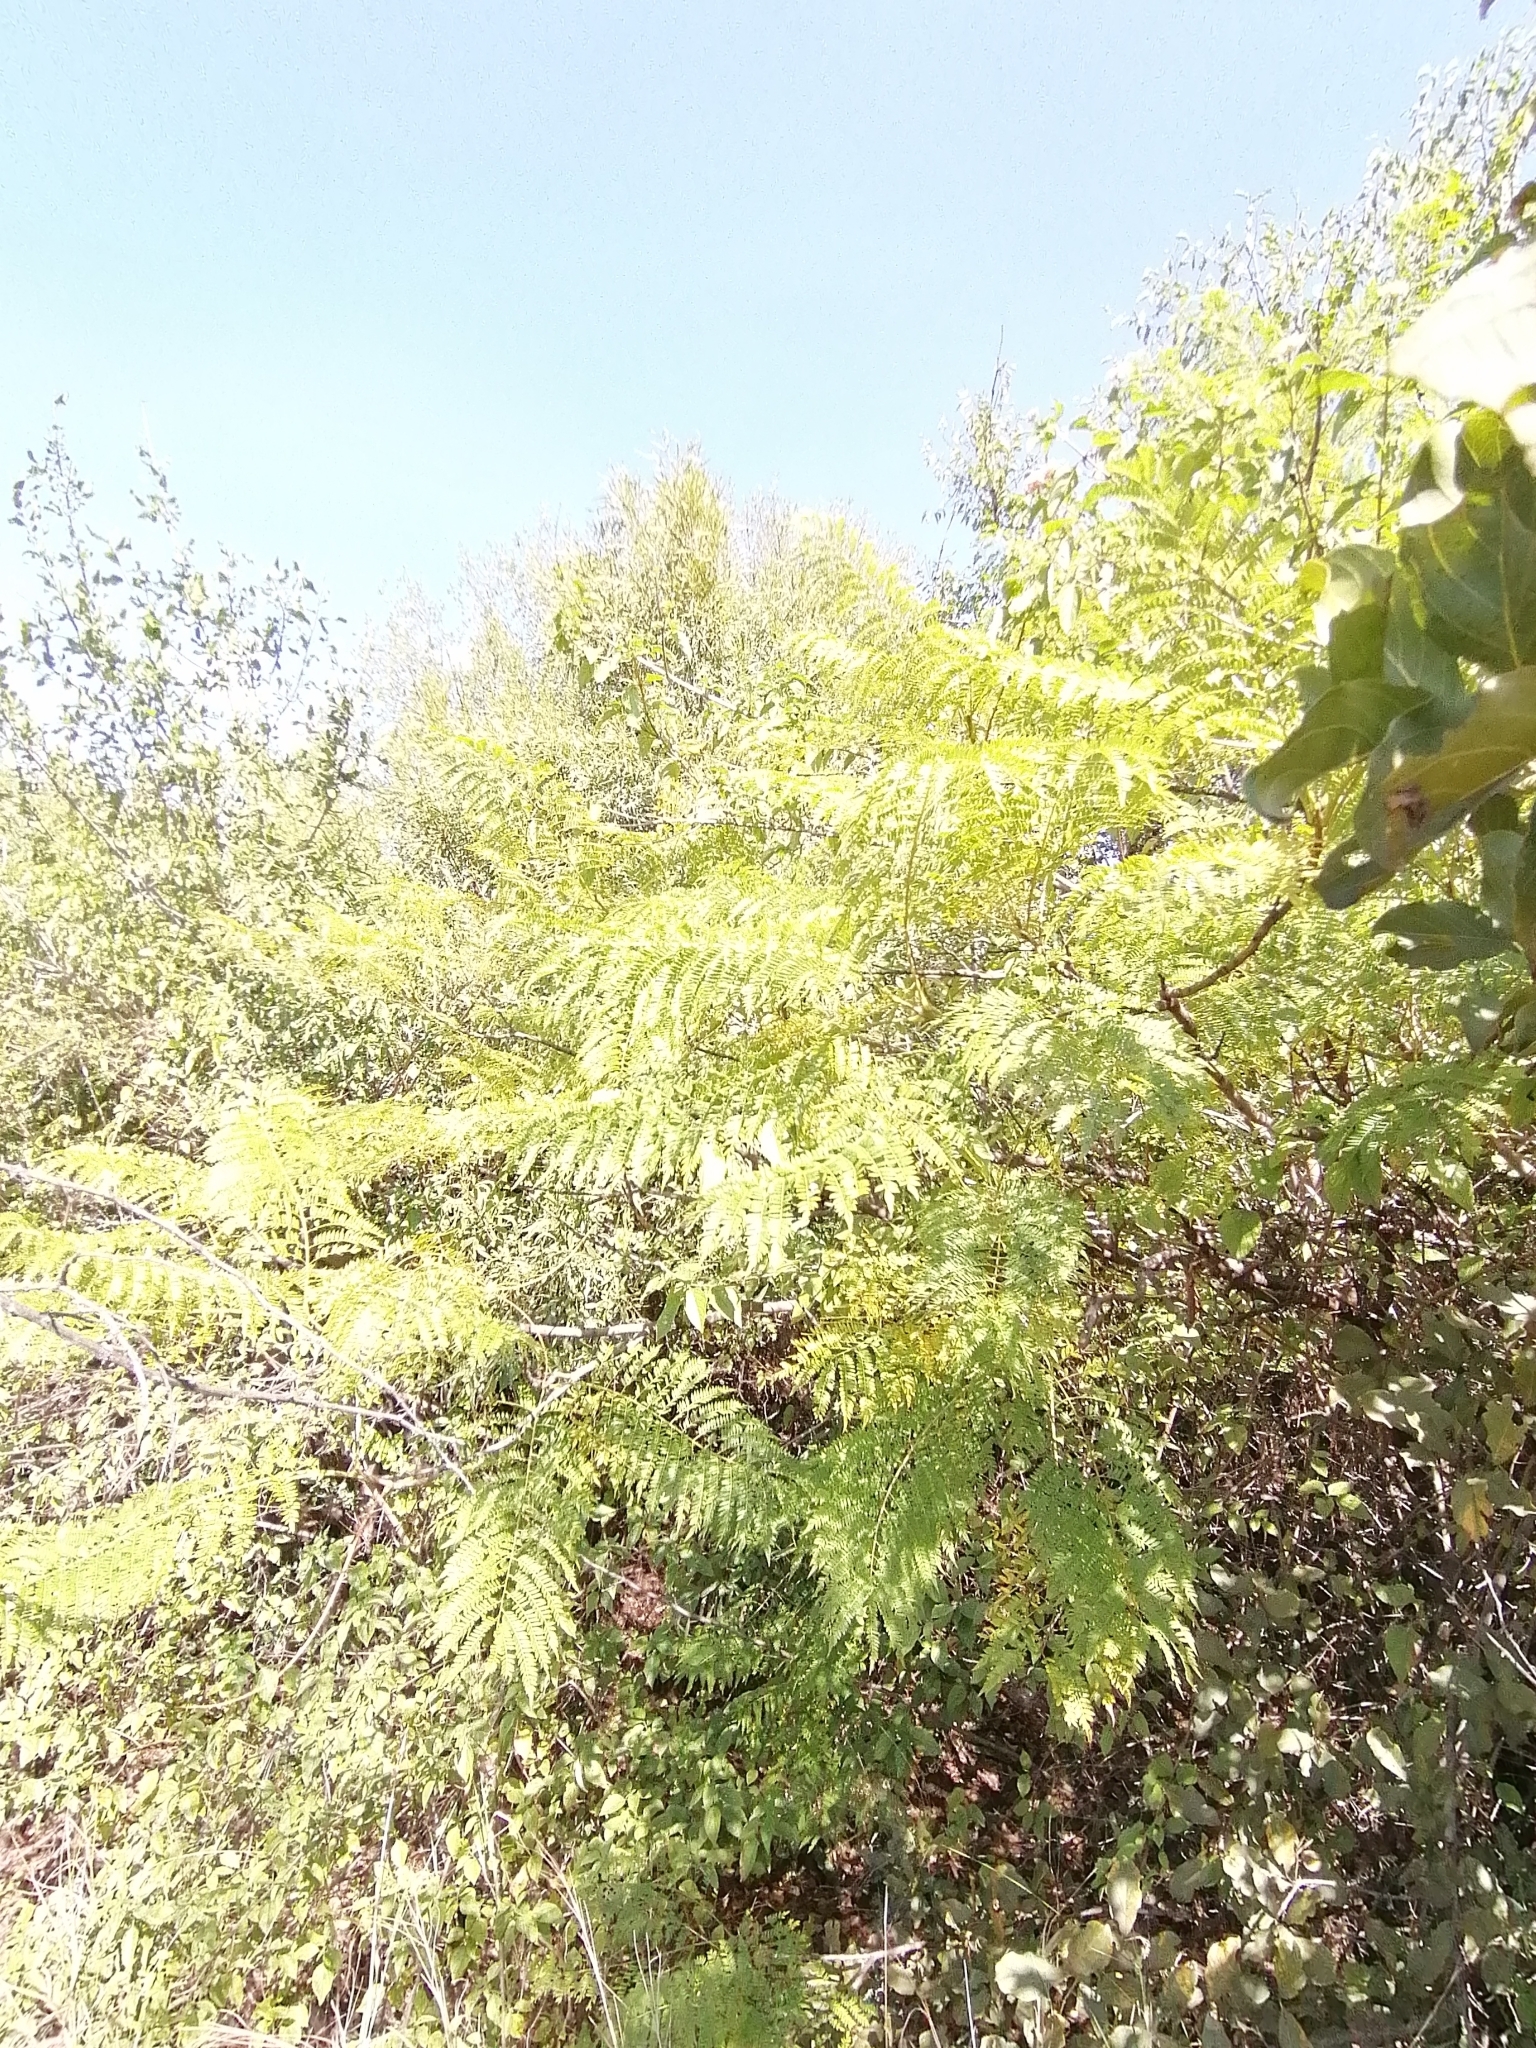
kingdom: Plantae
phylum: Tracheophyta
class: Magnoliopsida
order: Lamiales
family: Bignoniaceae
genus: Jacaranda
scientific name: Jacaranda mimosifolia
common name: Black poui
